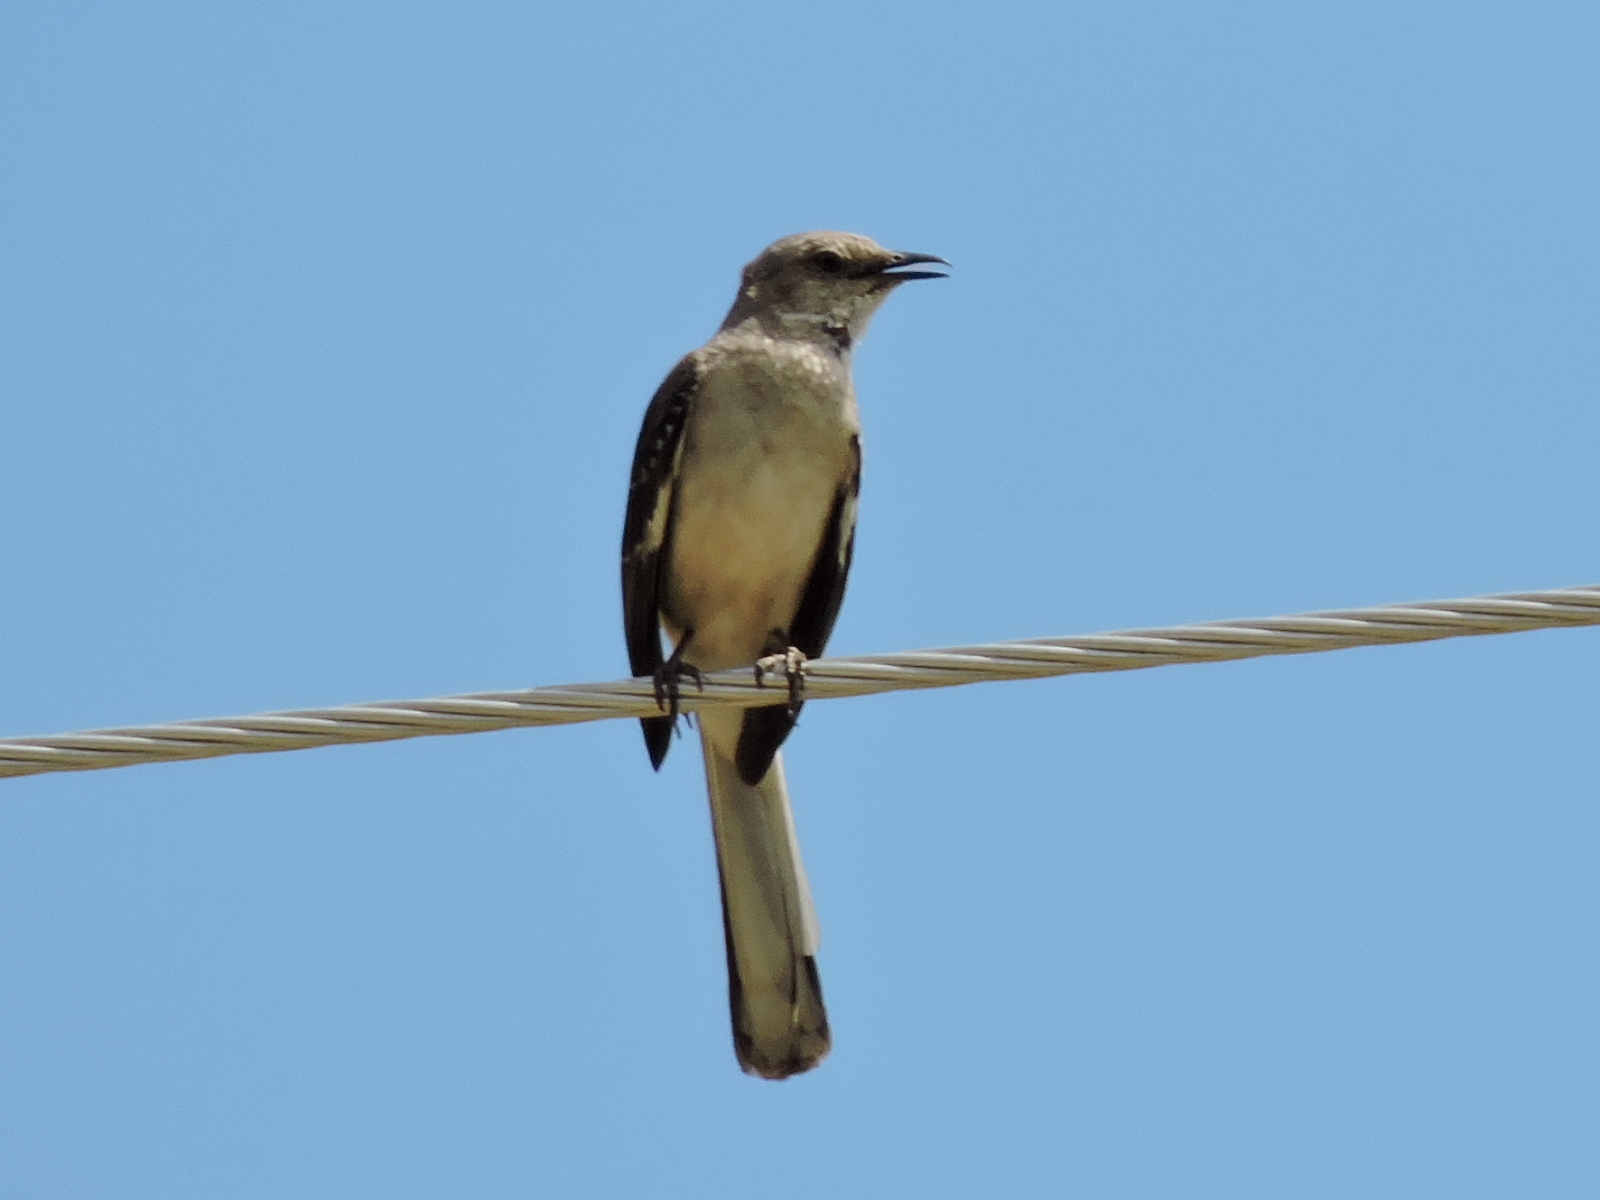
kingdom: Animalia
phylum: Chordata
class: Aves
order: Passeriformes
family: Mimidae
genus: Mimus
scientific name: Mimus polyglottos
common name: Northern mockingbird
